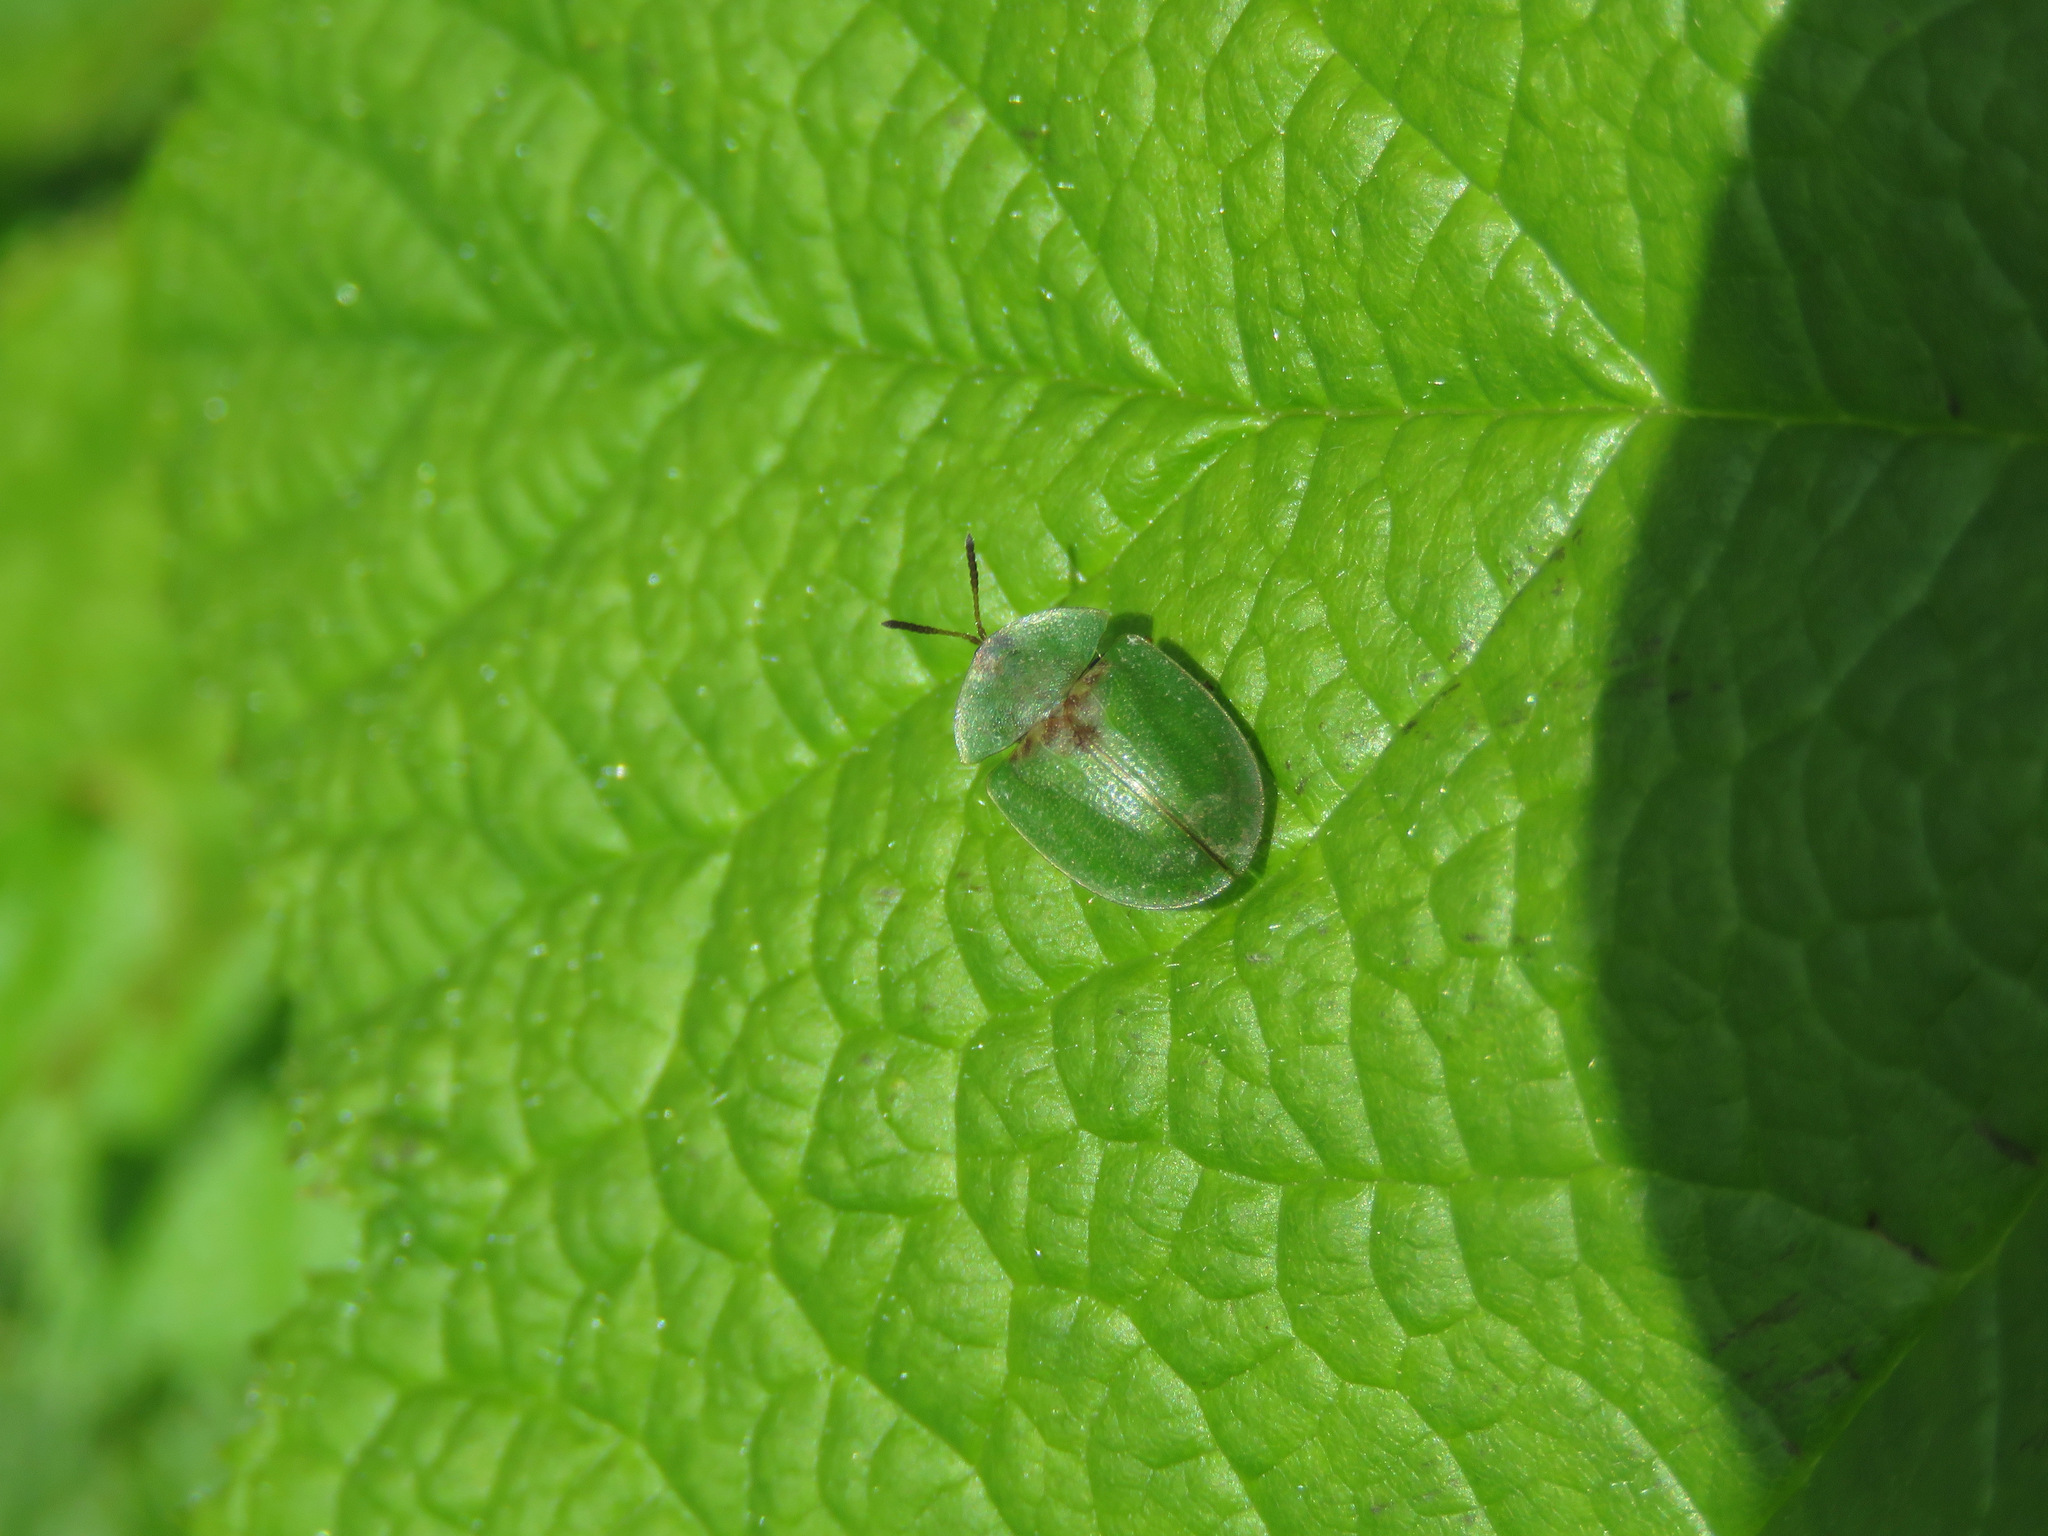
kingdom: Animalia
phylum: Arthropoda
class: Insecta
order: Coleoptera
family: Chrysomelidae
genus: Cassida
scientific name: Cassida rubiginosa
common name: Thistle tortoise beetle
